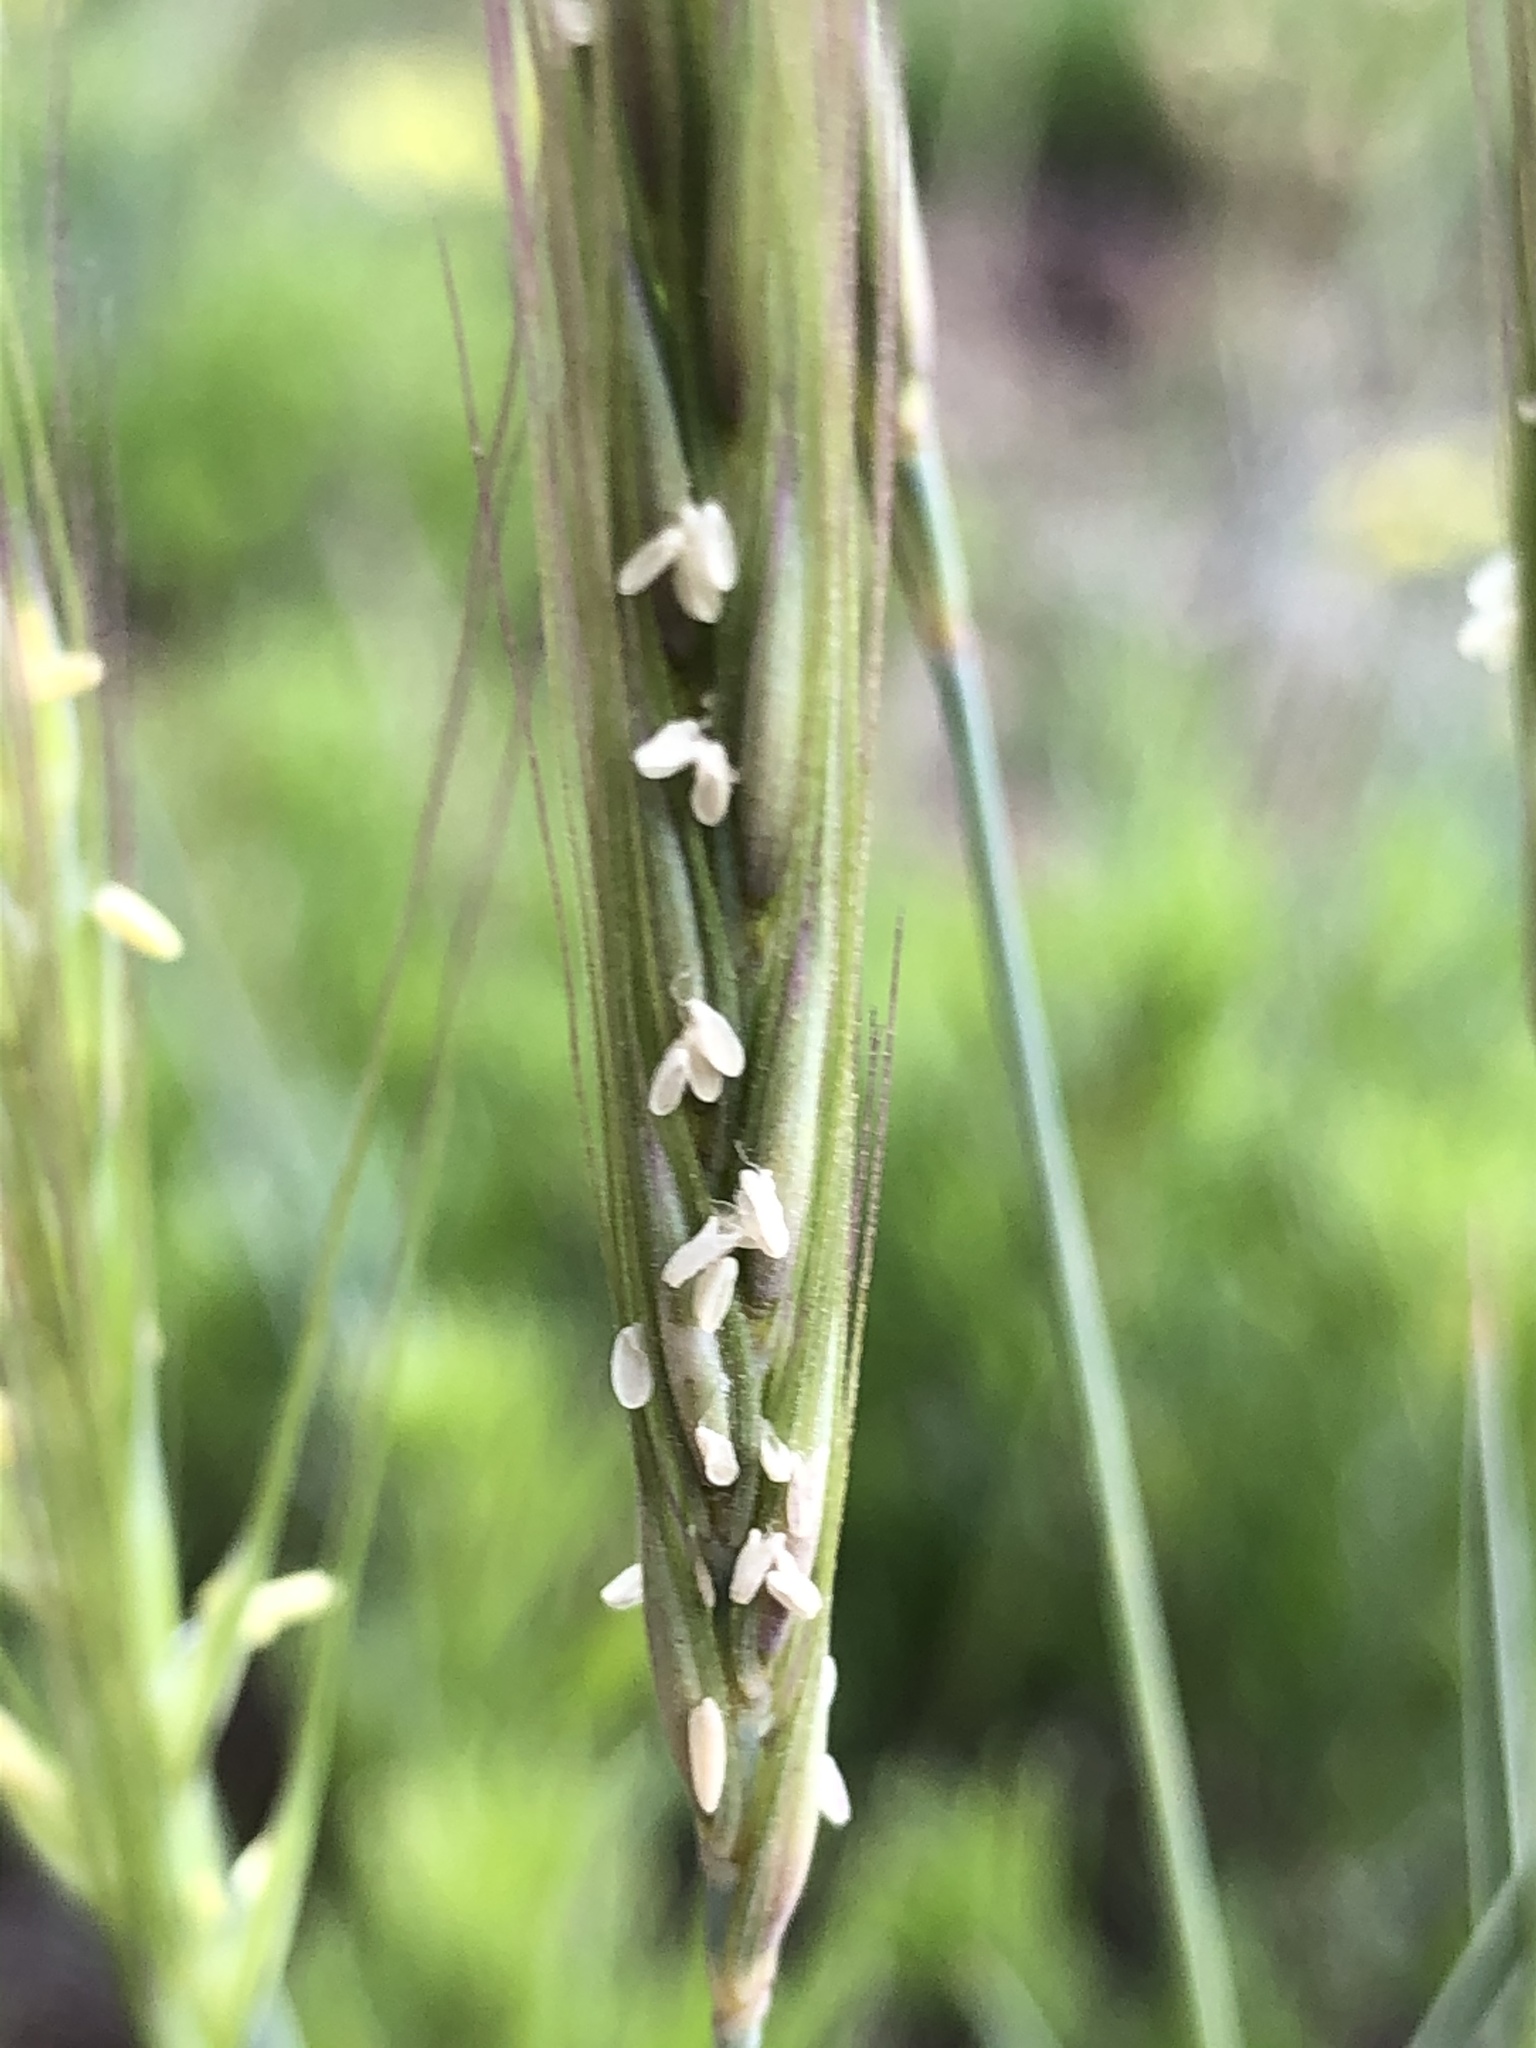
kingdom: Plantae
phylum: Tracheophyta
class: Liliopsida
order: Poales
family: Poaceae
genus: Elymus
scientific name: Elymus elymoides
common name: Bottlebrush squirreltail
